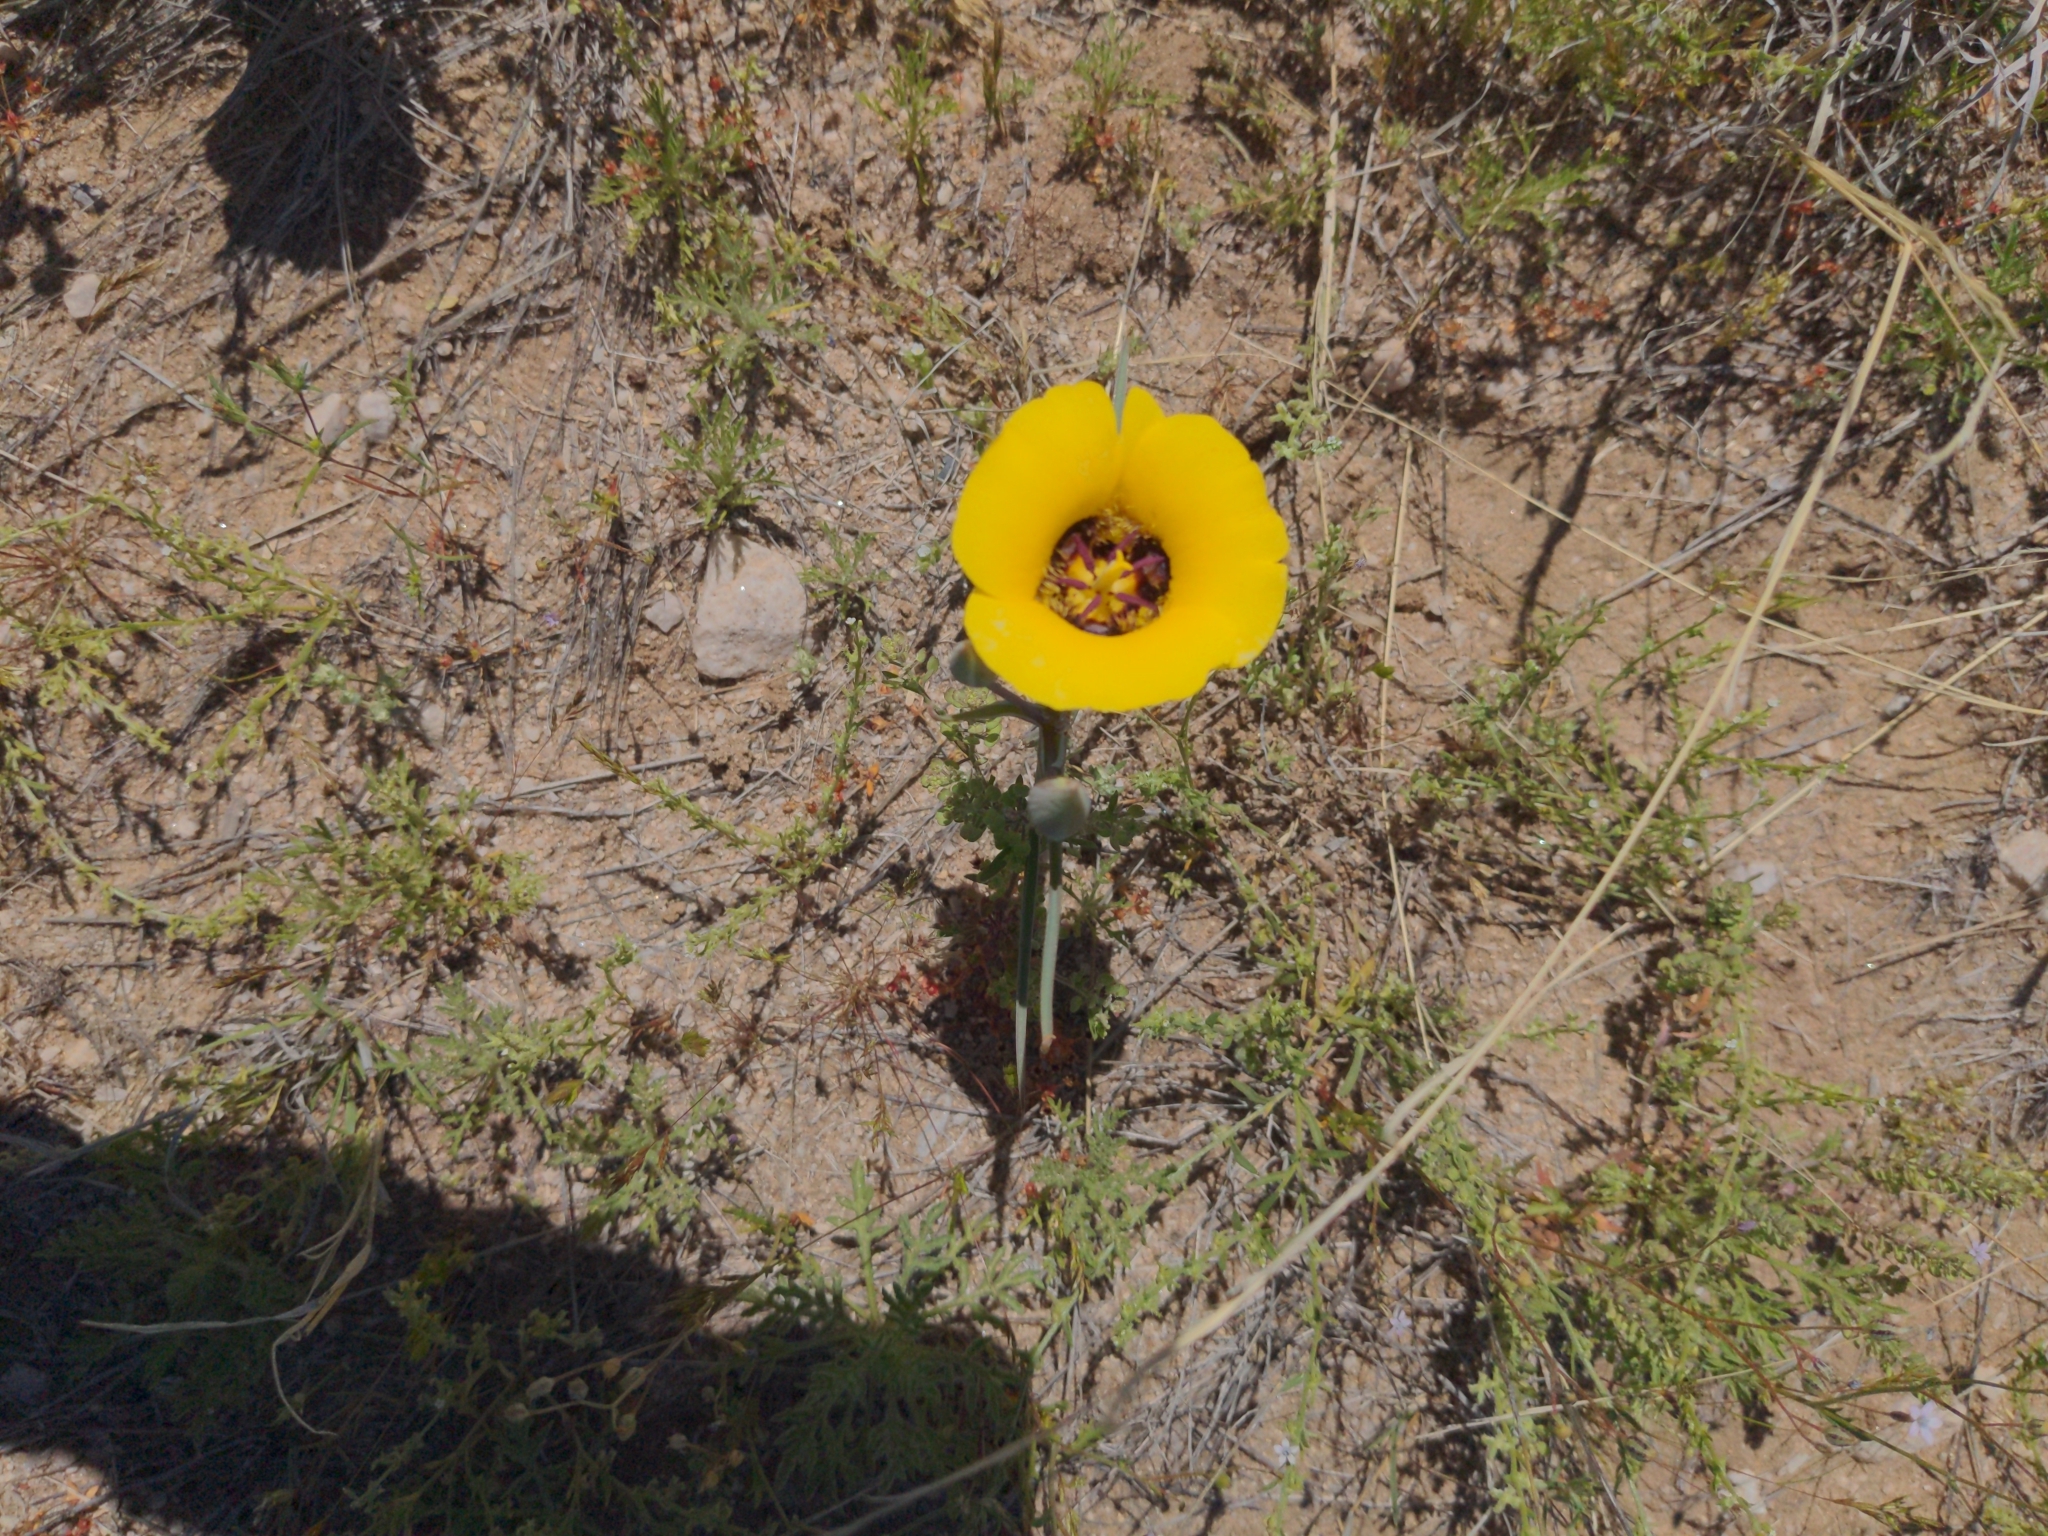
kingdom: Plantae
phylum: Tracheophyta
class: Liliopsida
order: Liliales
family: Liliaceae
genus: Calochortus
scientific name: Calochortus kennedyi
